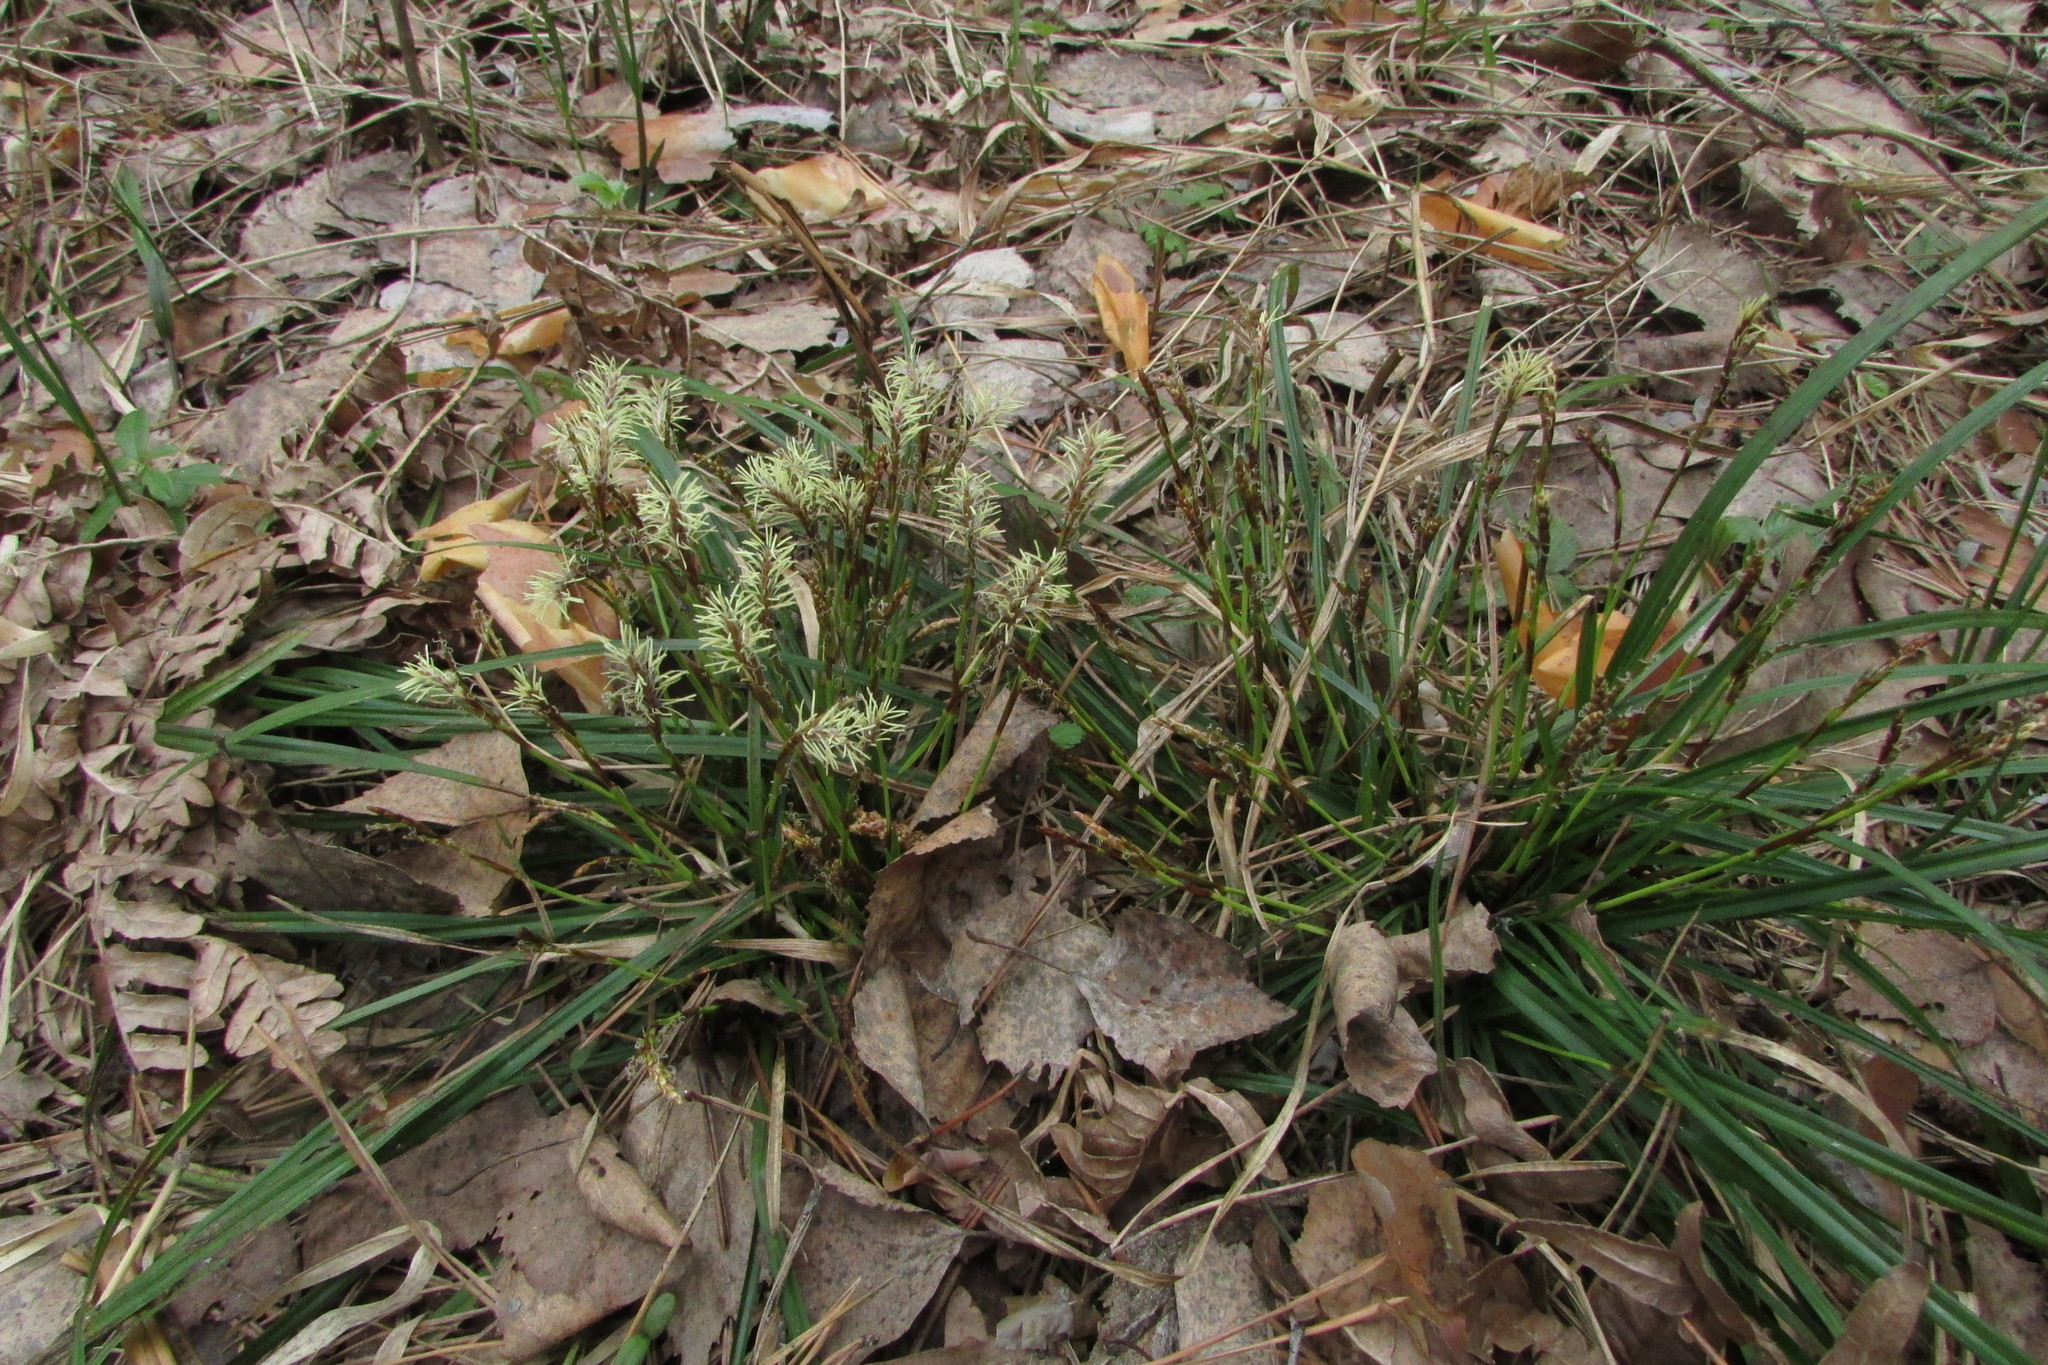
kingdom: Plantae
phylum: Tracheophyta
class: Liliopsida
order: Poales
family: Cyperaceae
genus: Carex
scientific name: Carex digitata
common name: Fingered sedge
